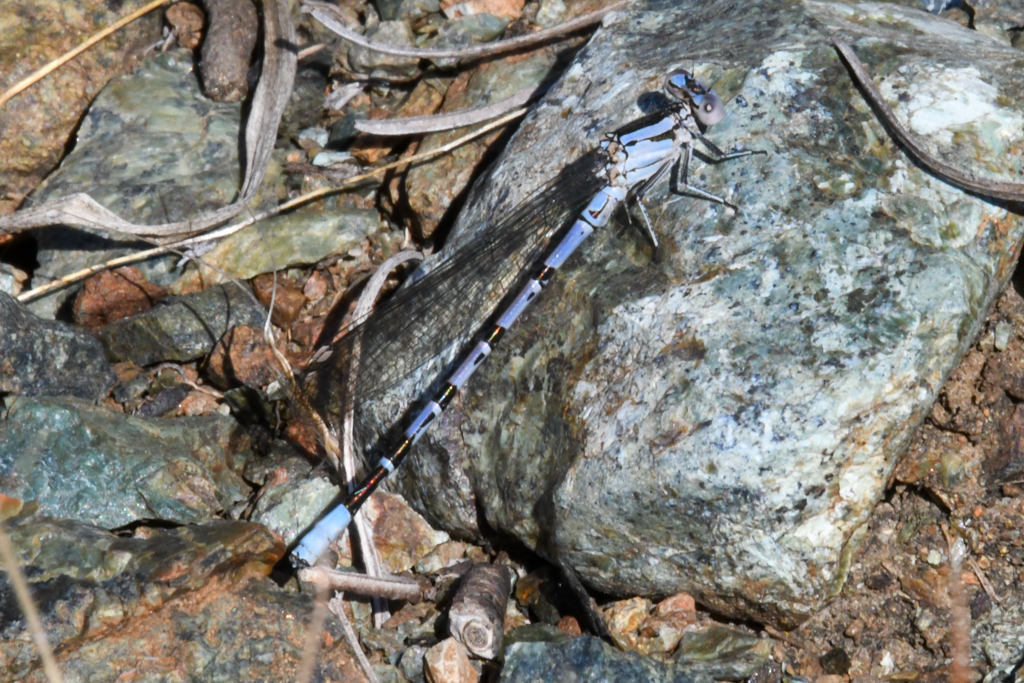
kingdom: Animalia
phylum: Arthropoda
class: Insecta
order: Odonata
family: Coenagrionidae
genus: Argia
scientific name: Argia vivida
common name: Vivid dancer
